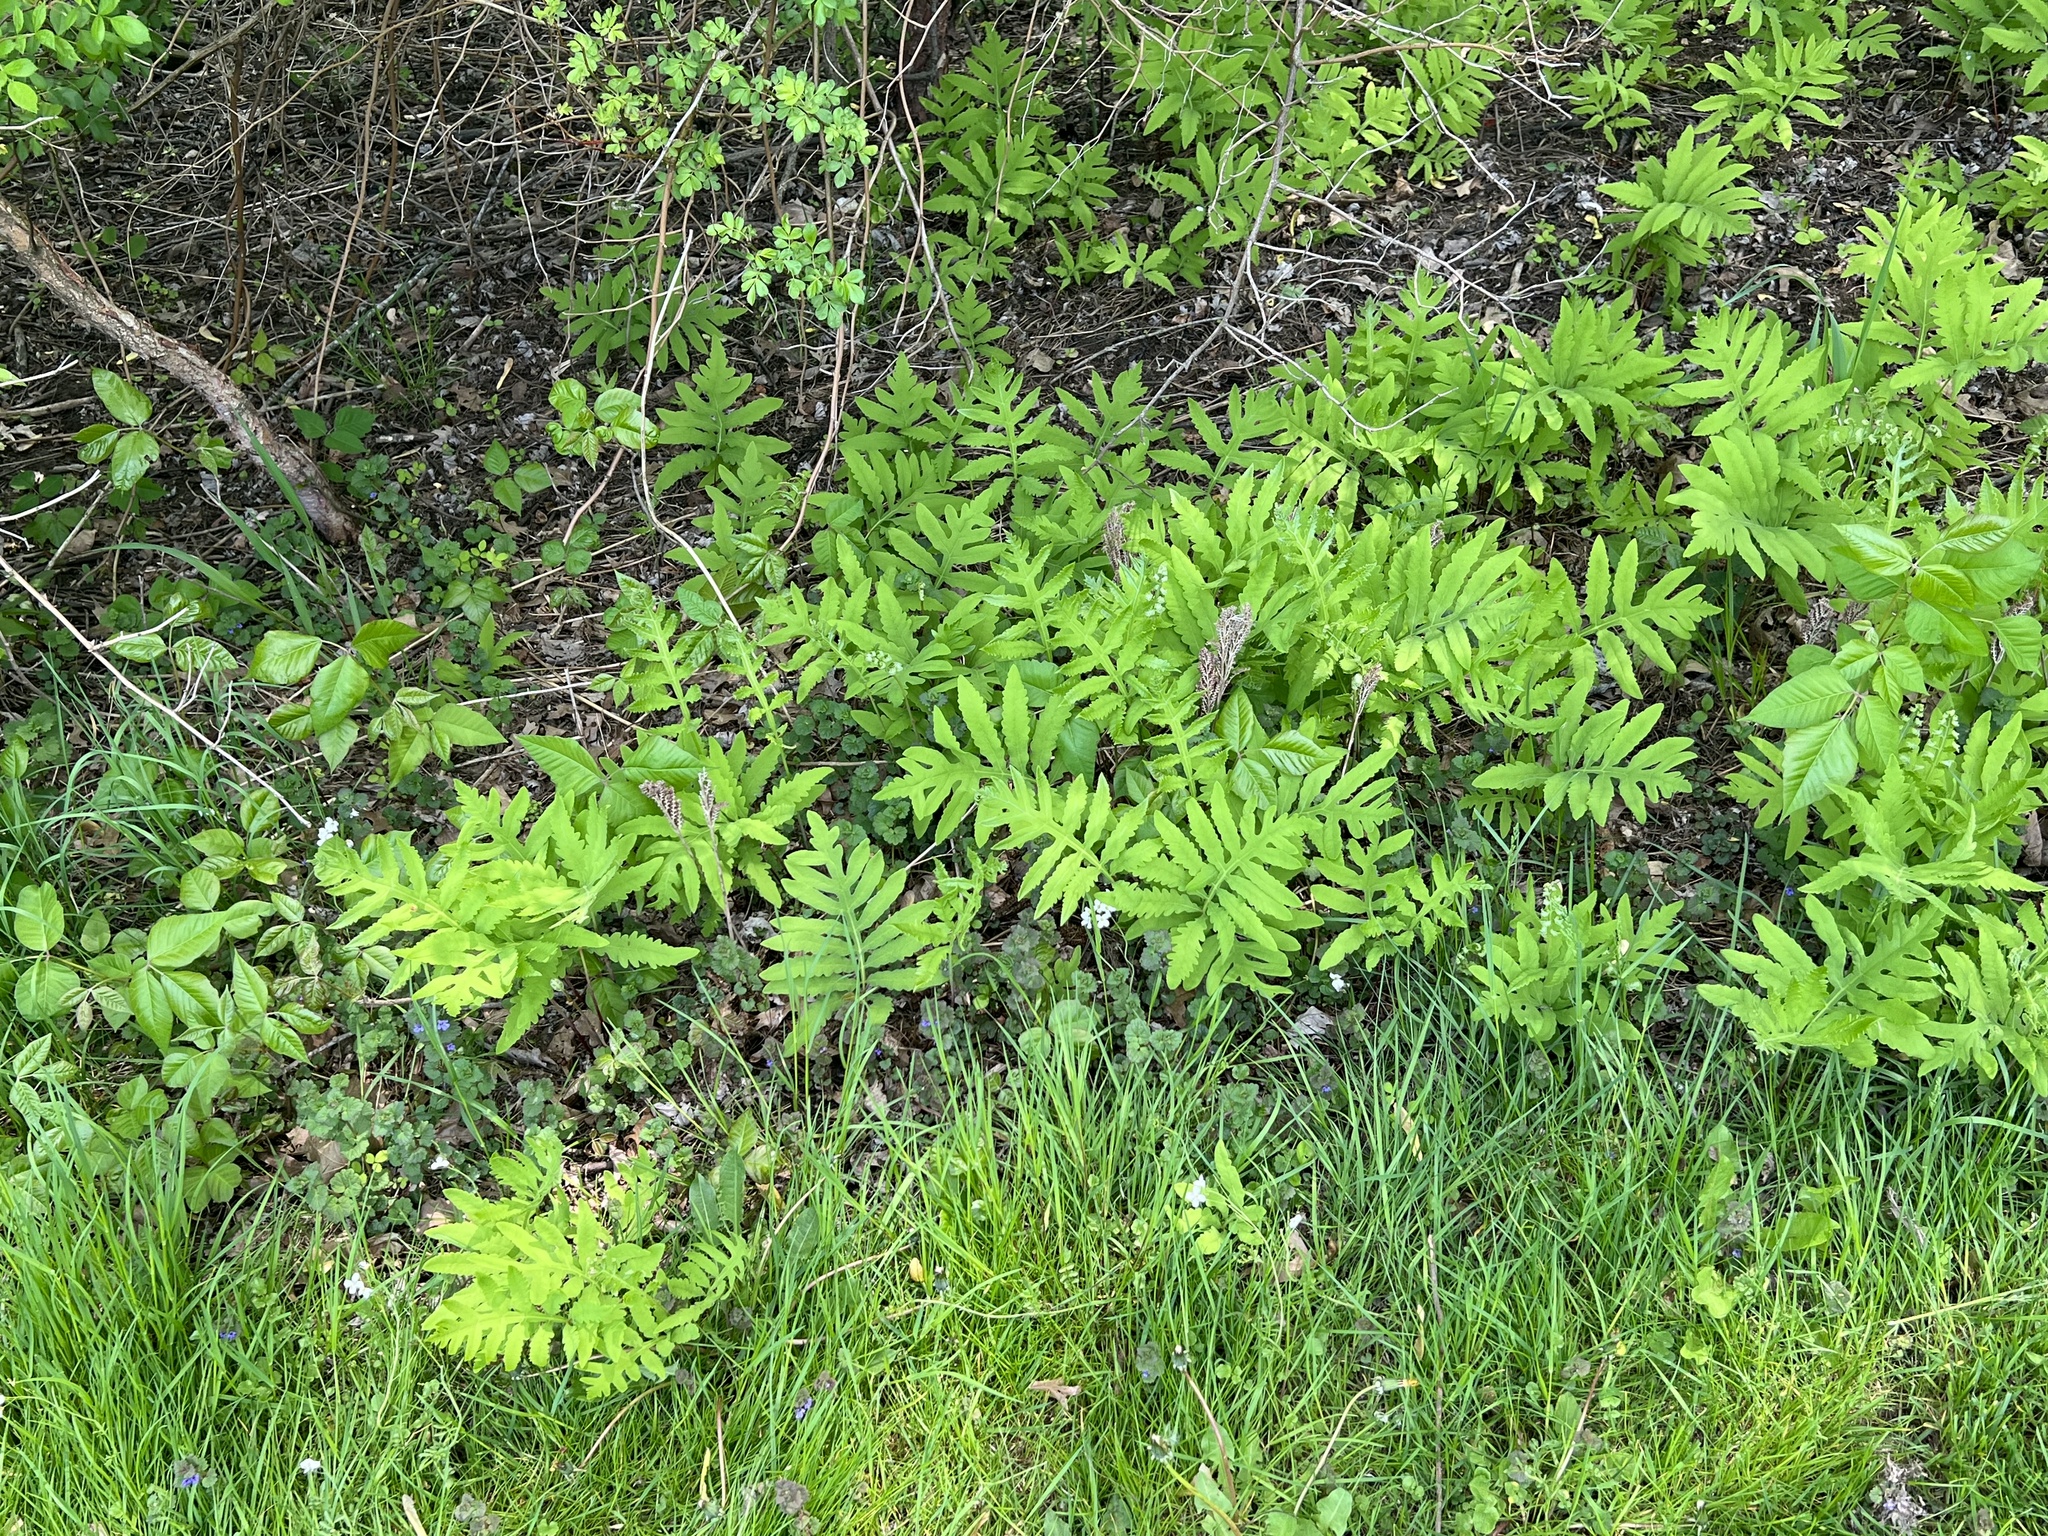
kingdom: Plantae
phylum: Tracheophyta
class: Polypodiopsida
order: Polypodiales
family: Onocleaceae
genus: Onoclea
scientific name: Onoclea sensibilis
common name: Sensitive fern
